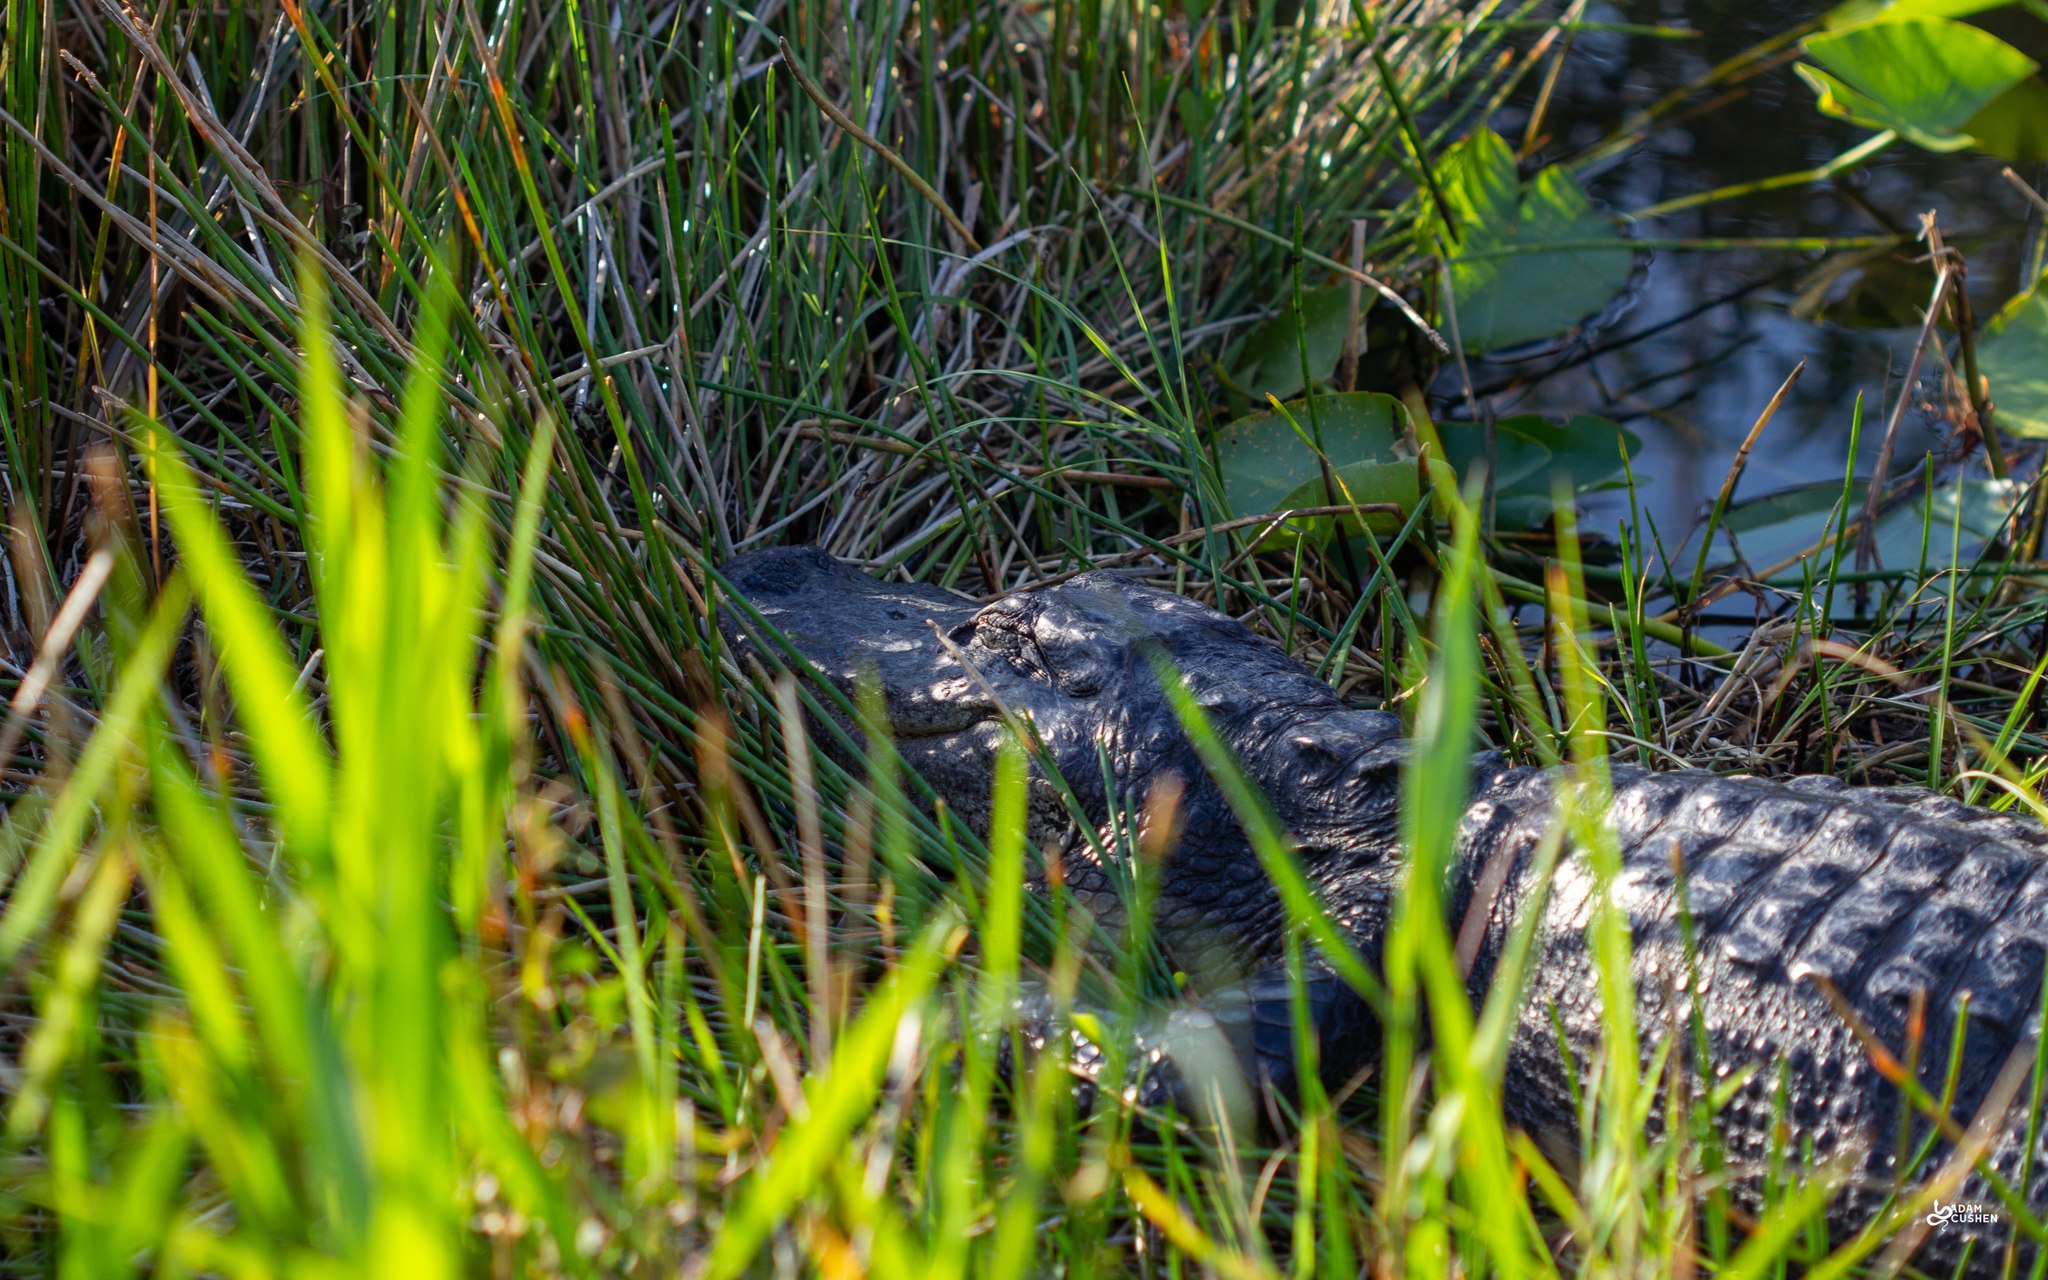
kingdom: Animalia
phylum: Chordata
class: Crocodylia
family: Alligatoridae
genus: Alligator
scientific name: Alligator mississippiensis
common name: American alligator
